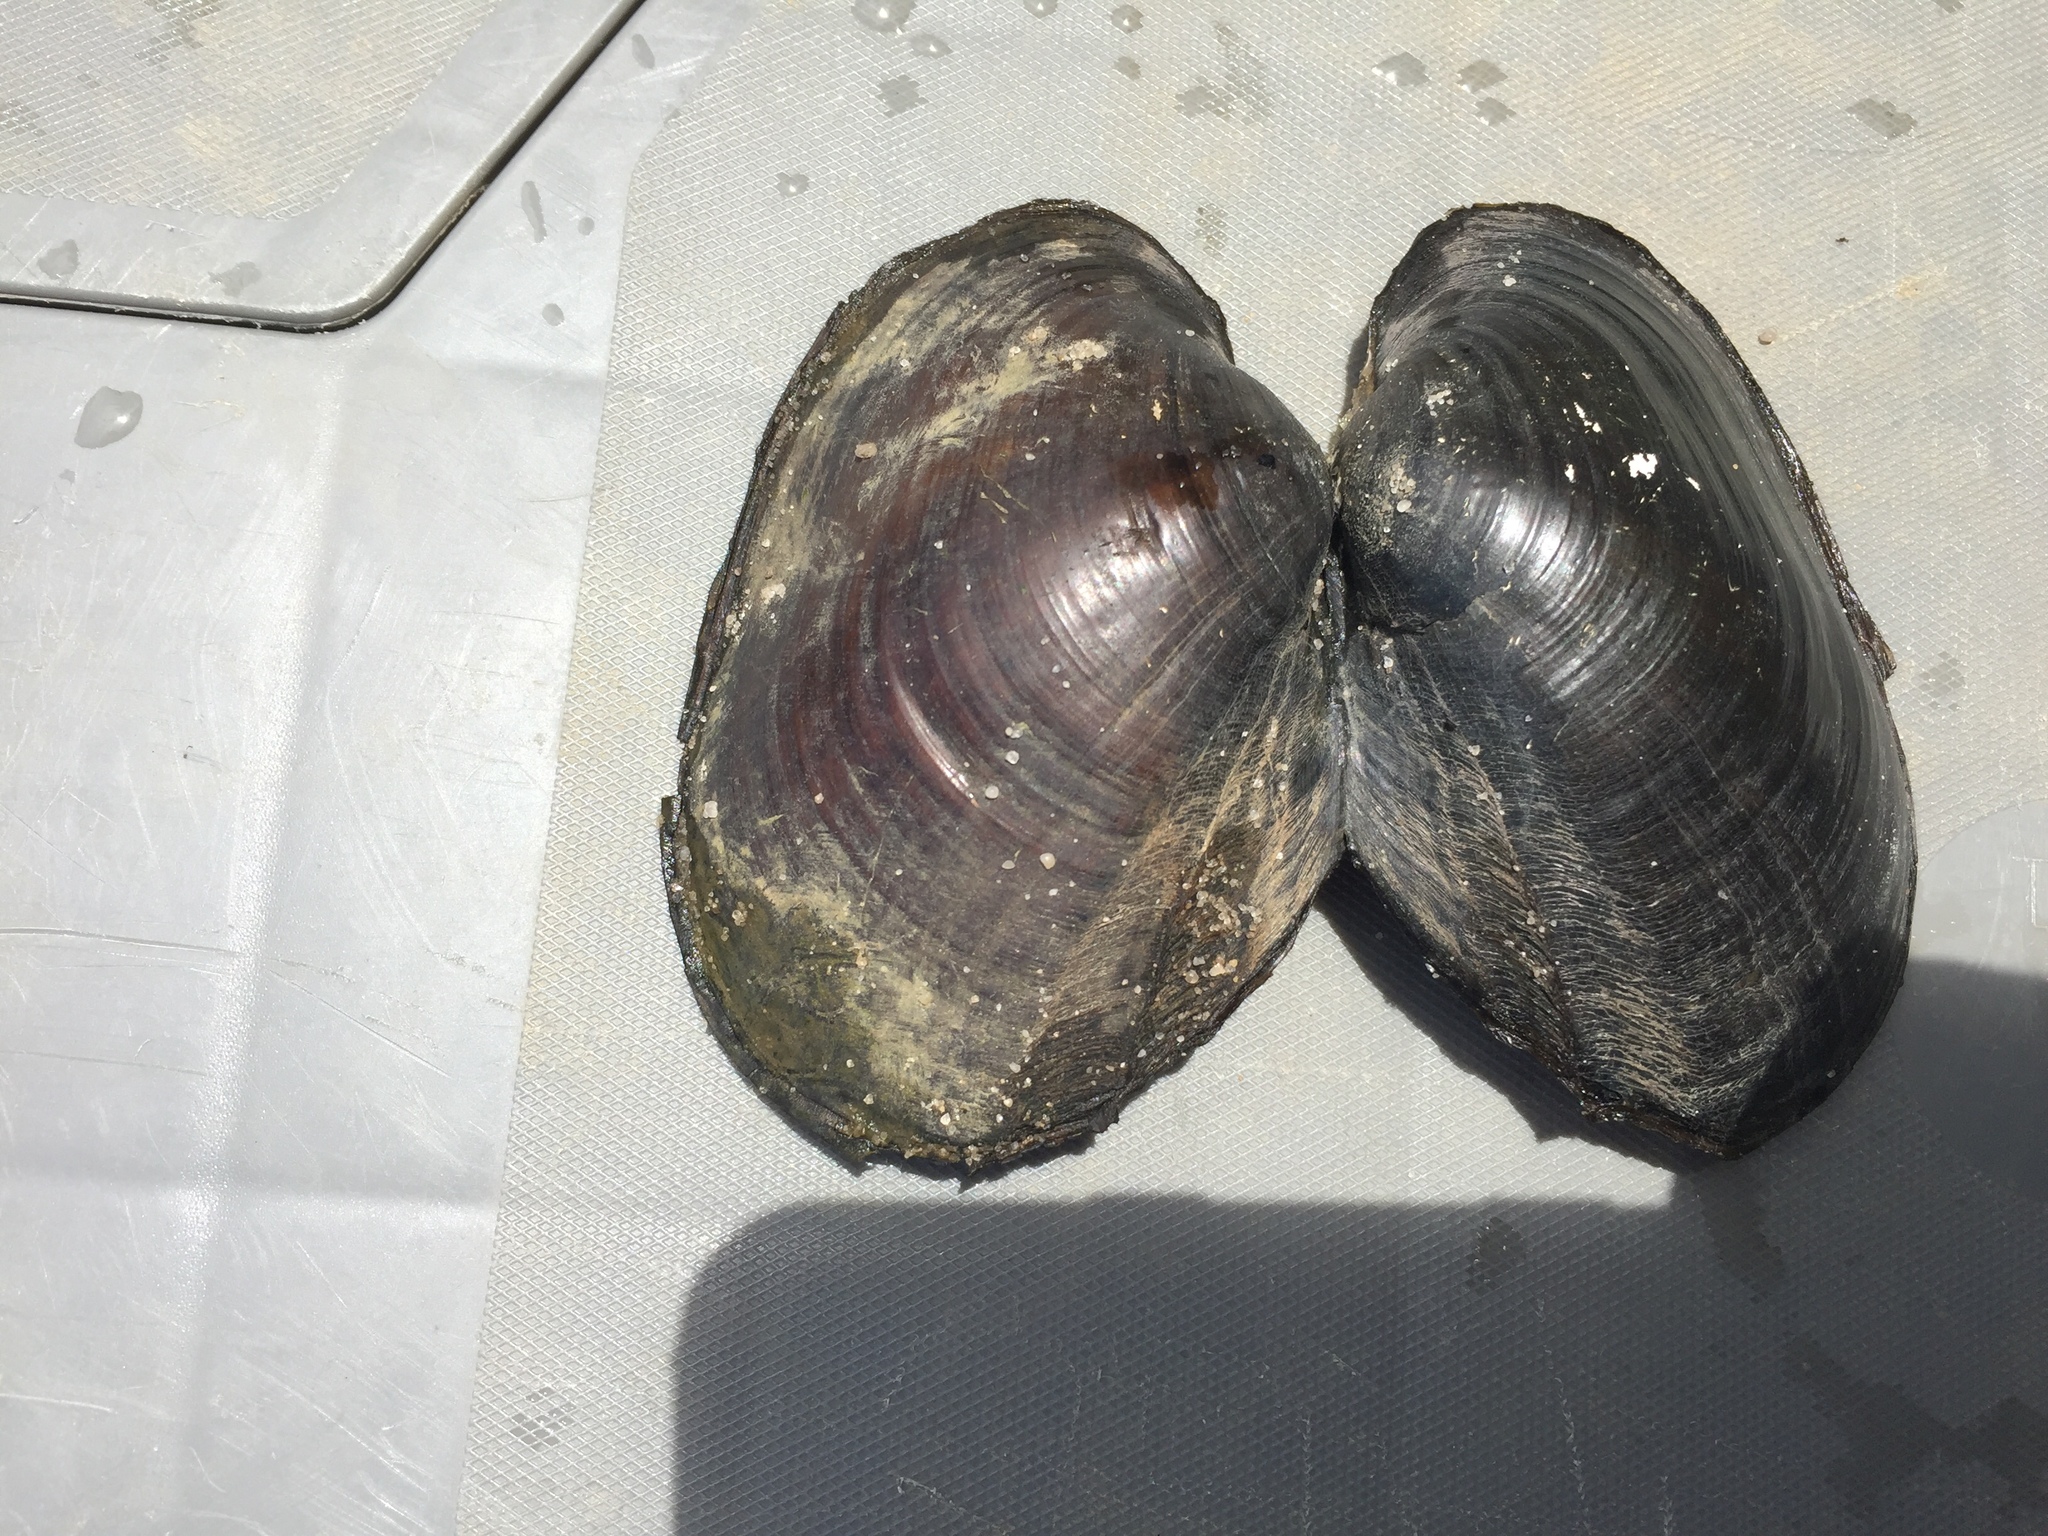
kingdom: Animalia
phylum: Mollusca
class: Bivalvia
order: Unionida
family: Unionidae
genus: Potamilus
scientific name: Potamilus purpuratus
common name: Bleufer
